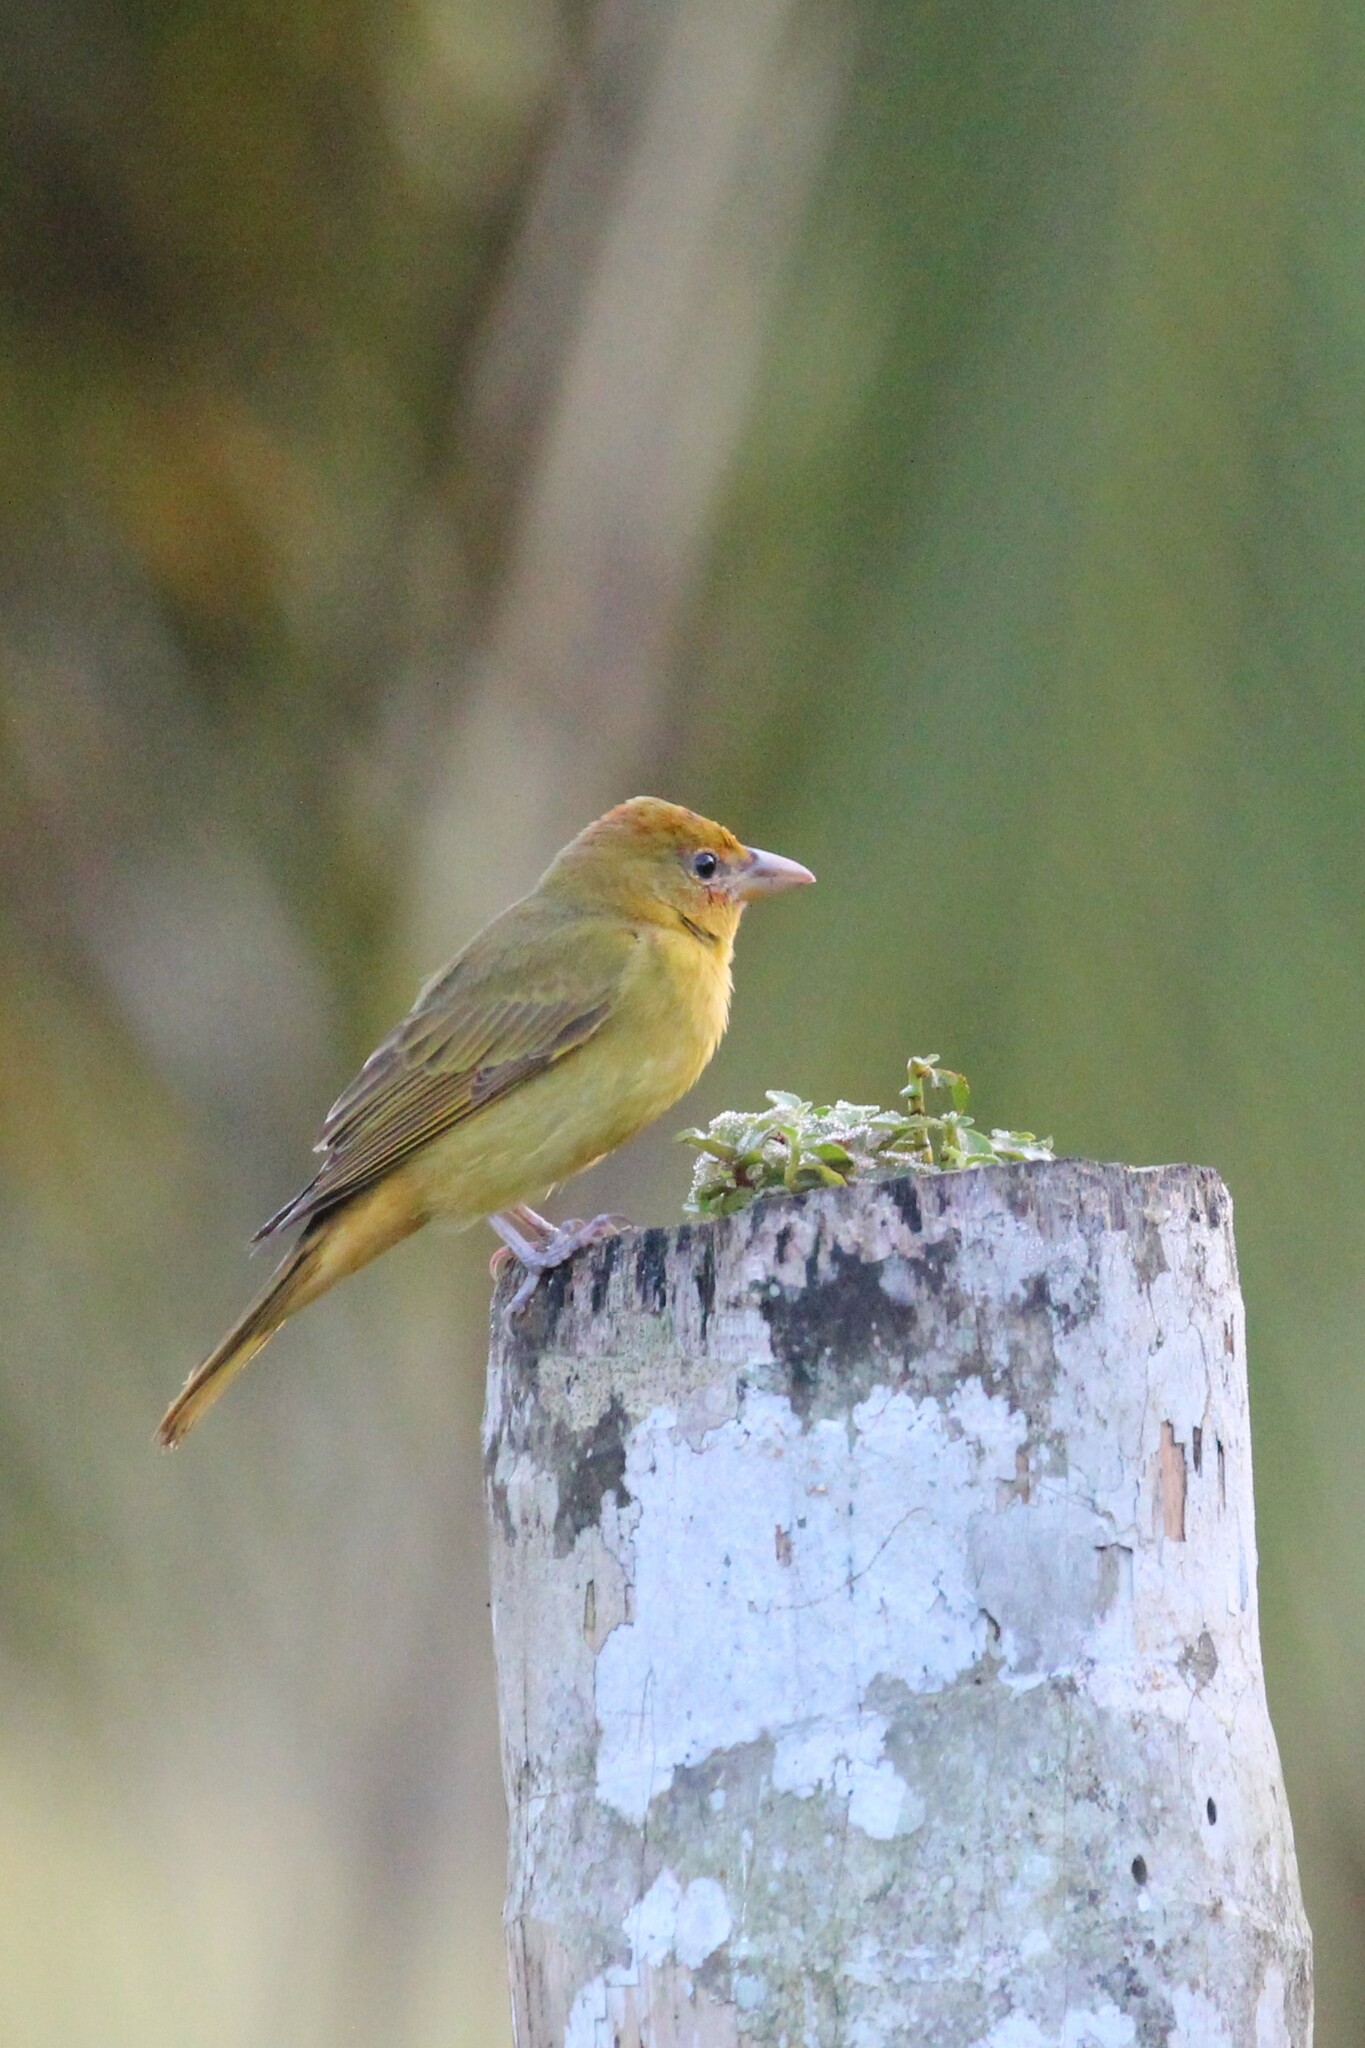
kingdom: Animalia
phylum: Chordata
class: Aves
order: Passeriformes
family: Cardinalidae
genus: Piranga
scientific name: Piranga rubra
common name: Summer tanager
